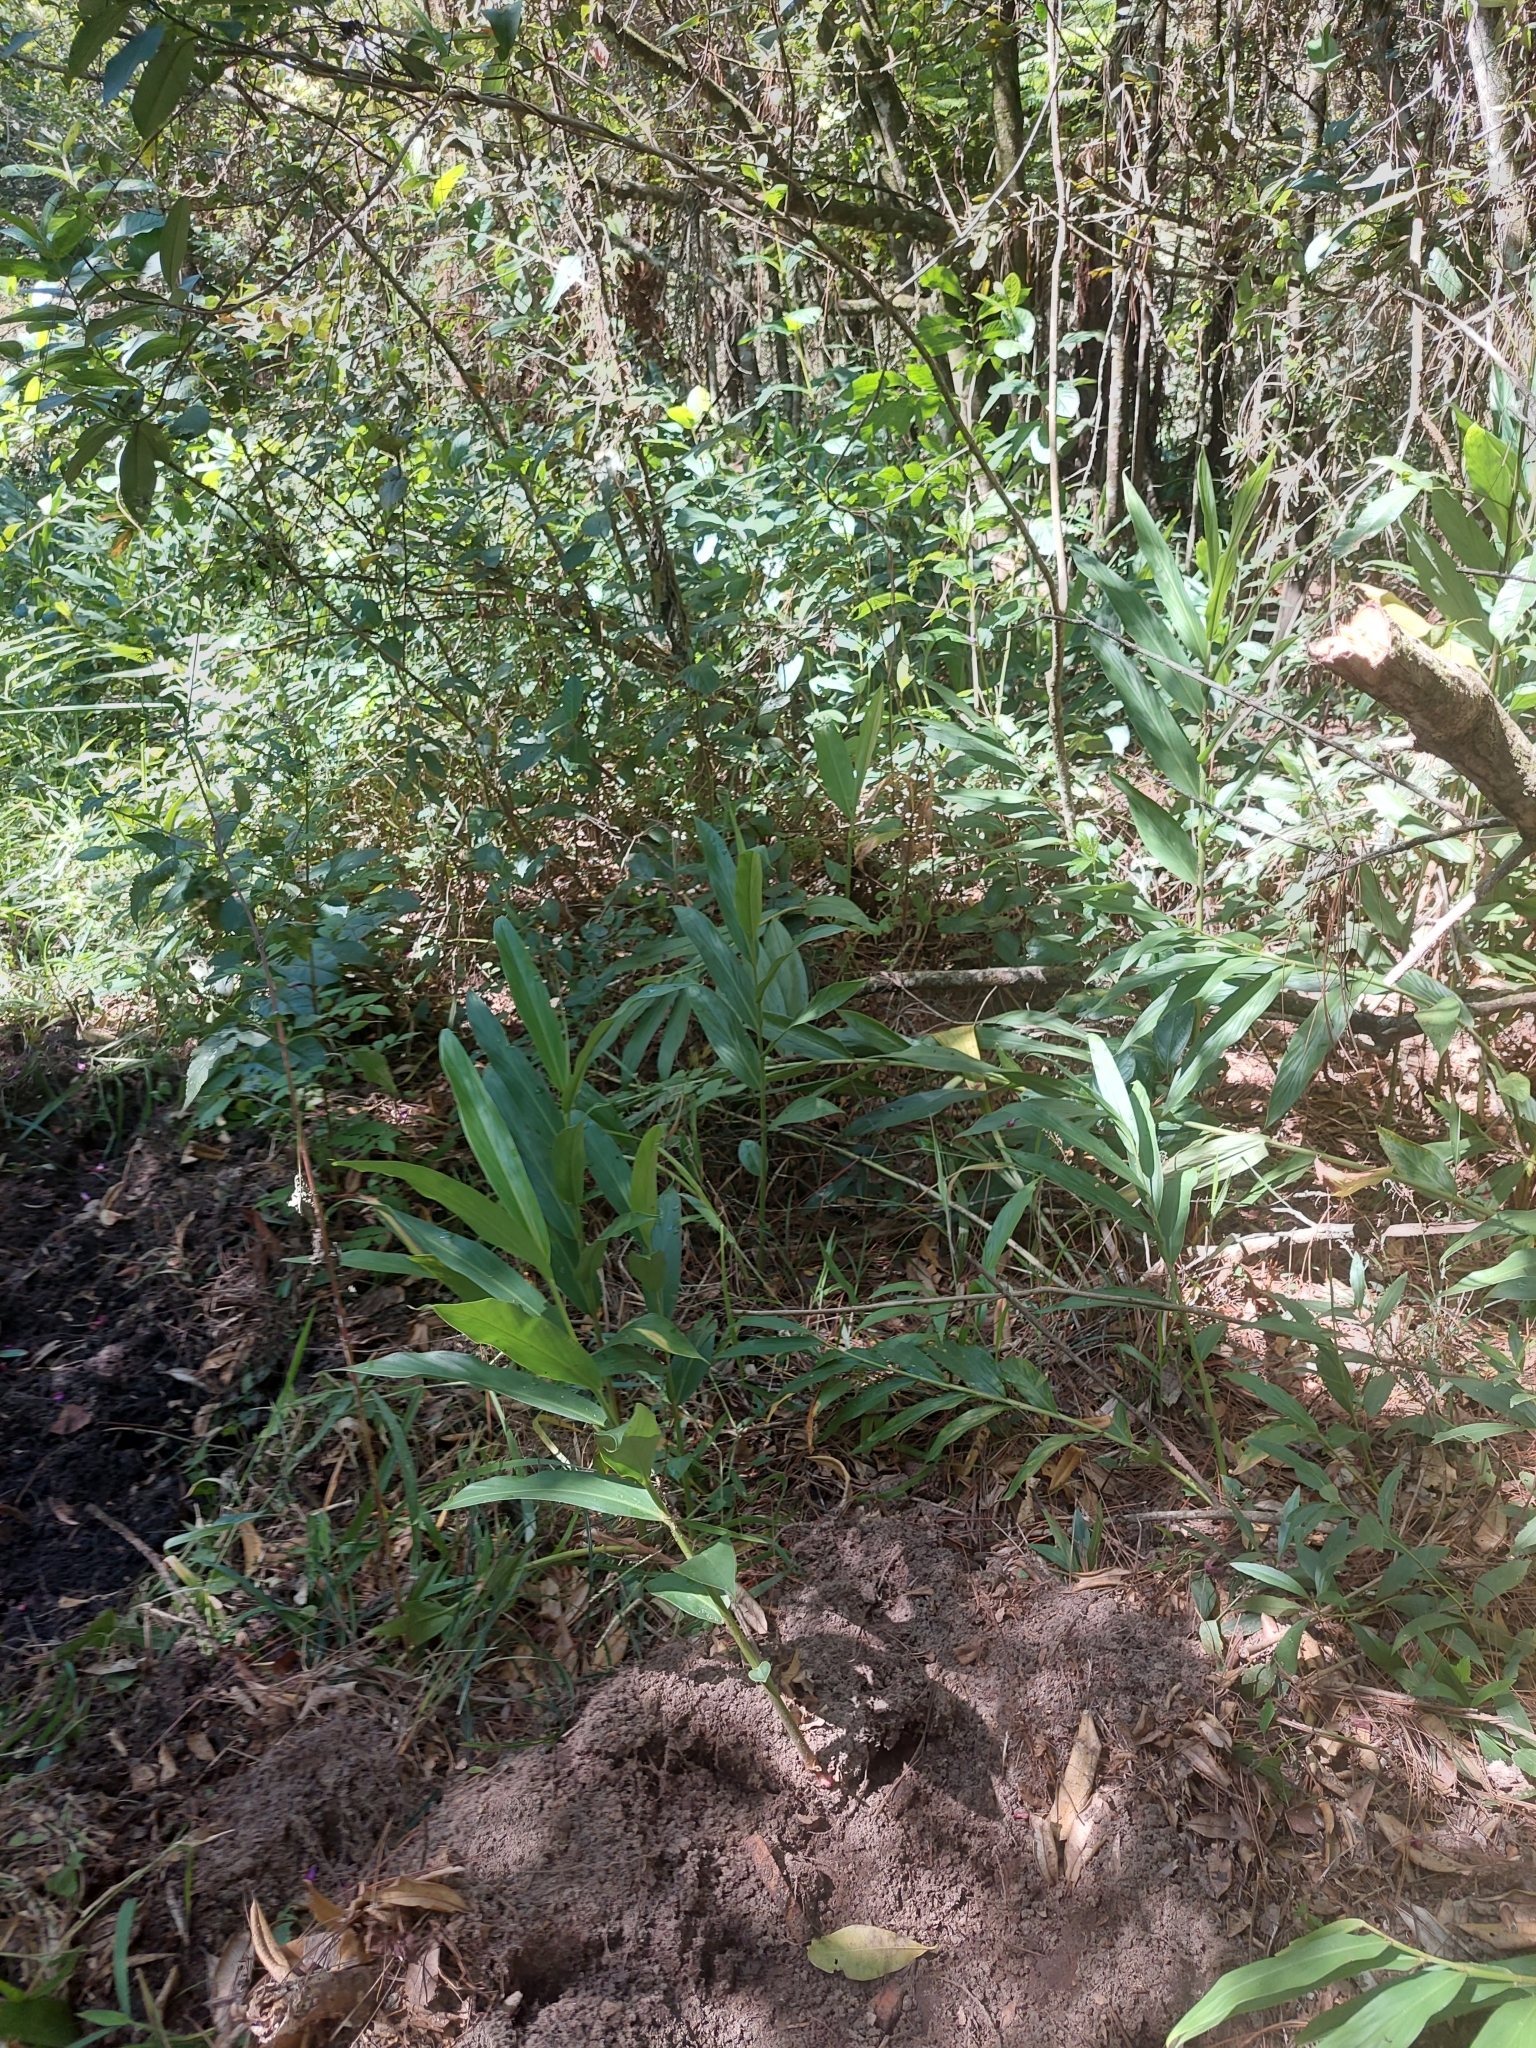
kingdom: Plantae
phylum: Tracheophyta
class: Liliopsida
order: Zingiberales
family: Zingiberaceae
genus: Hedychium
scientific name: Hedychium coronarium
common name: White garland-lily
